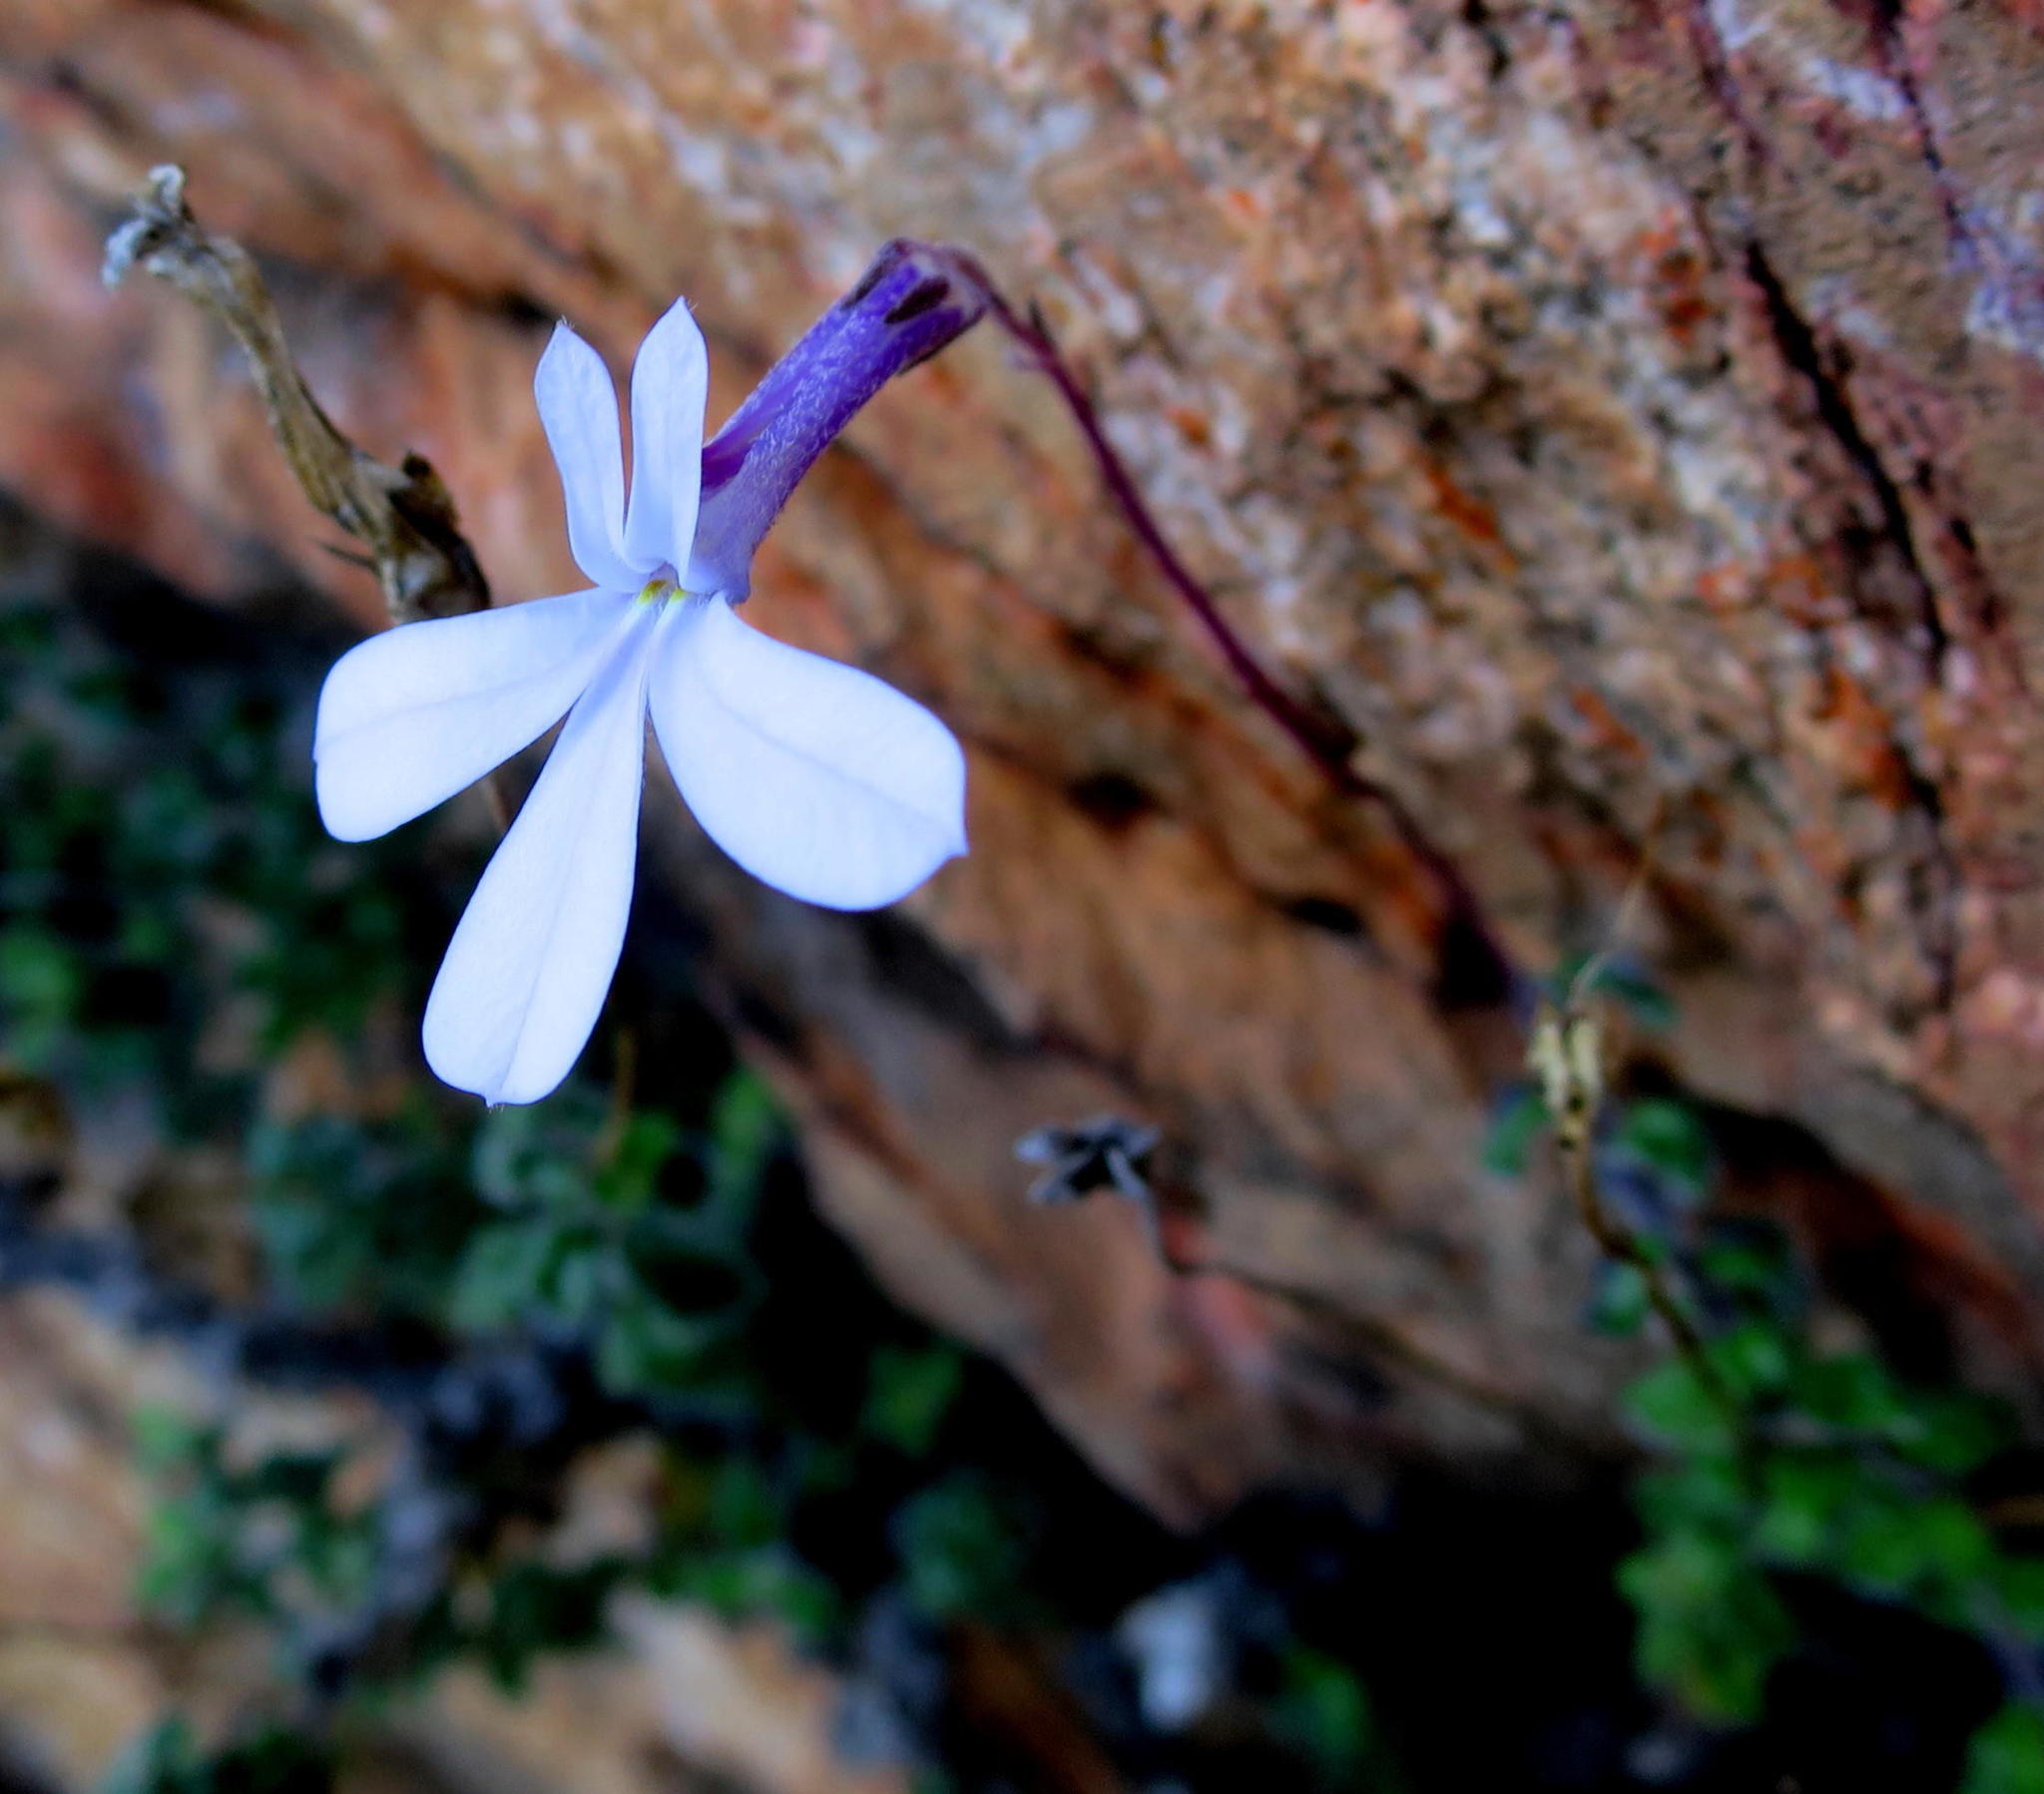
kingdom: Plantae
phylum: Tracheophyta
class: Magnoliopsida
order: Asterales
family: Campanulaceae
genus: Lobelia
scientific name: Lobelia dichroma
